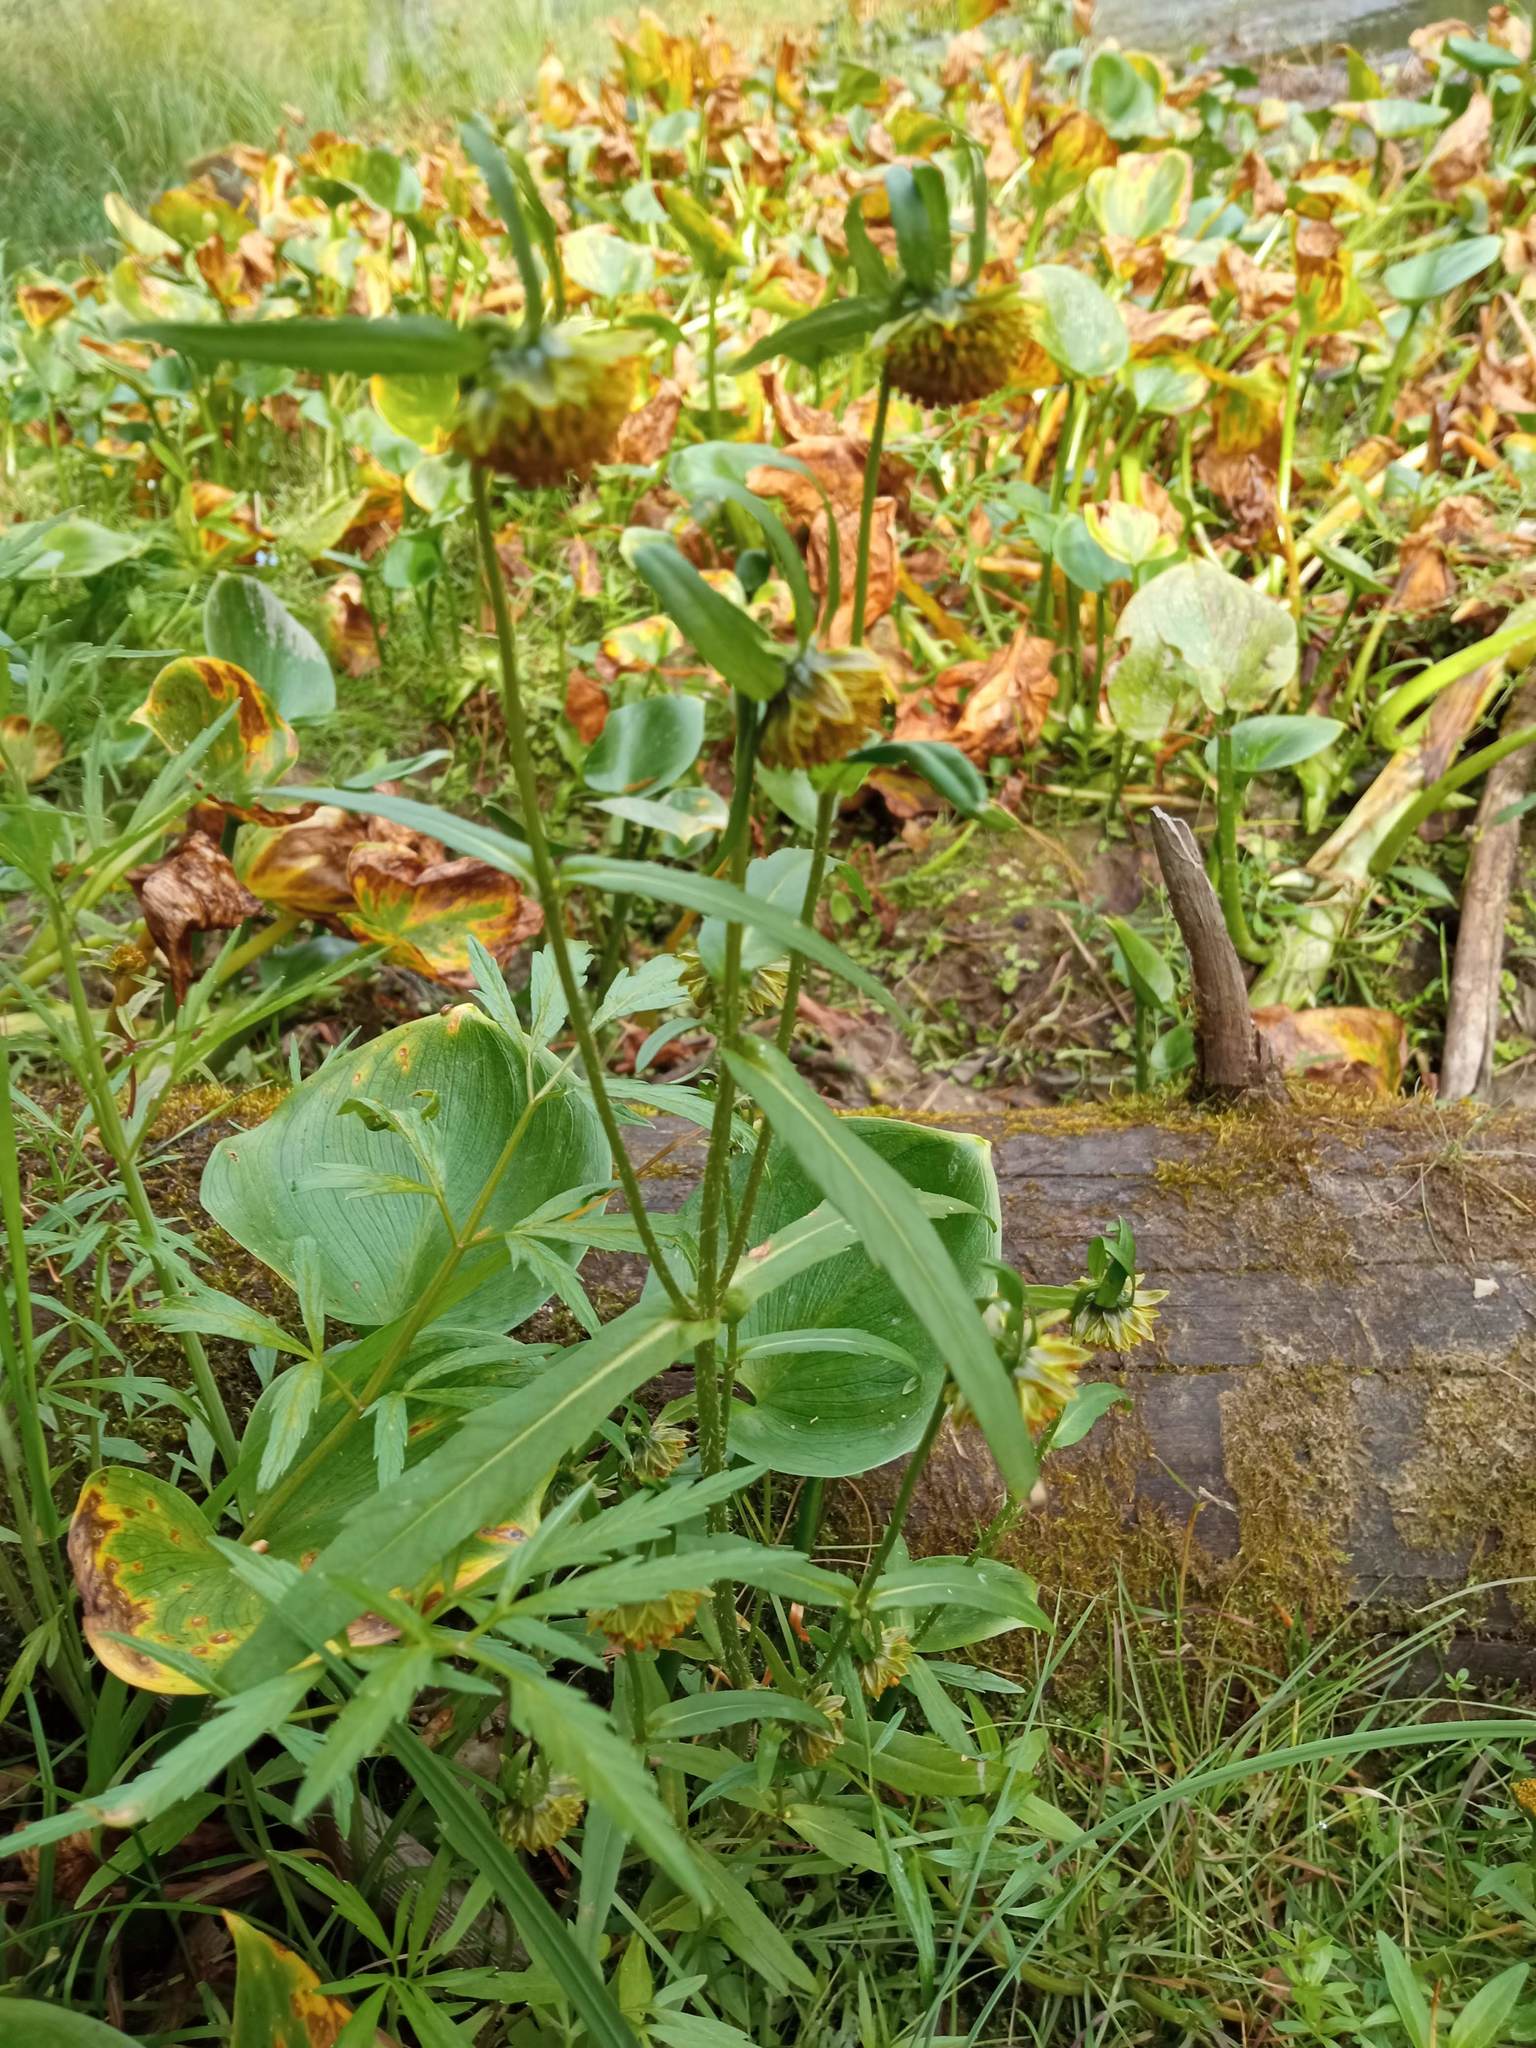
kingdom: Plantae
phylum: Tracheophyta
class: Magnoliopsida
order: Asterales
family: Asteraceae
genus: Bidens
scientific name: Bidens cernua
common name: Nodding bur-marigold
